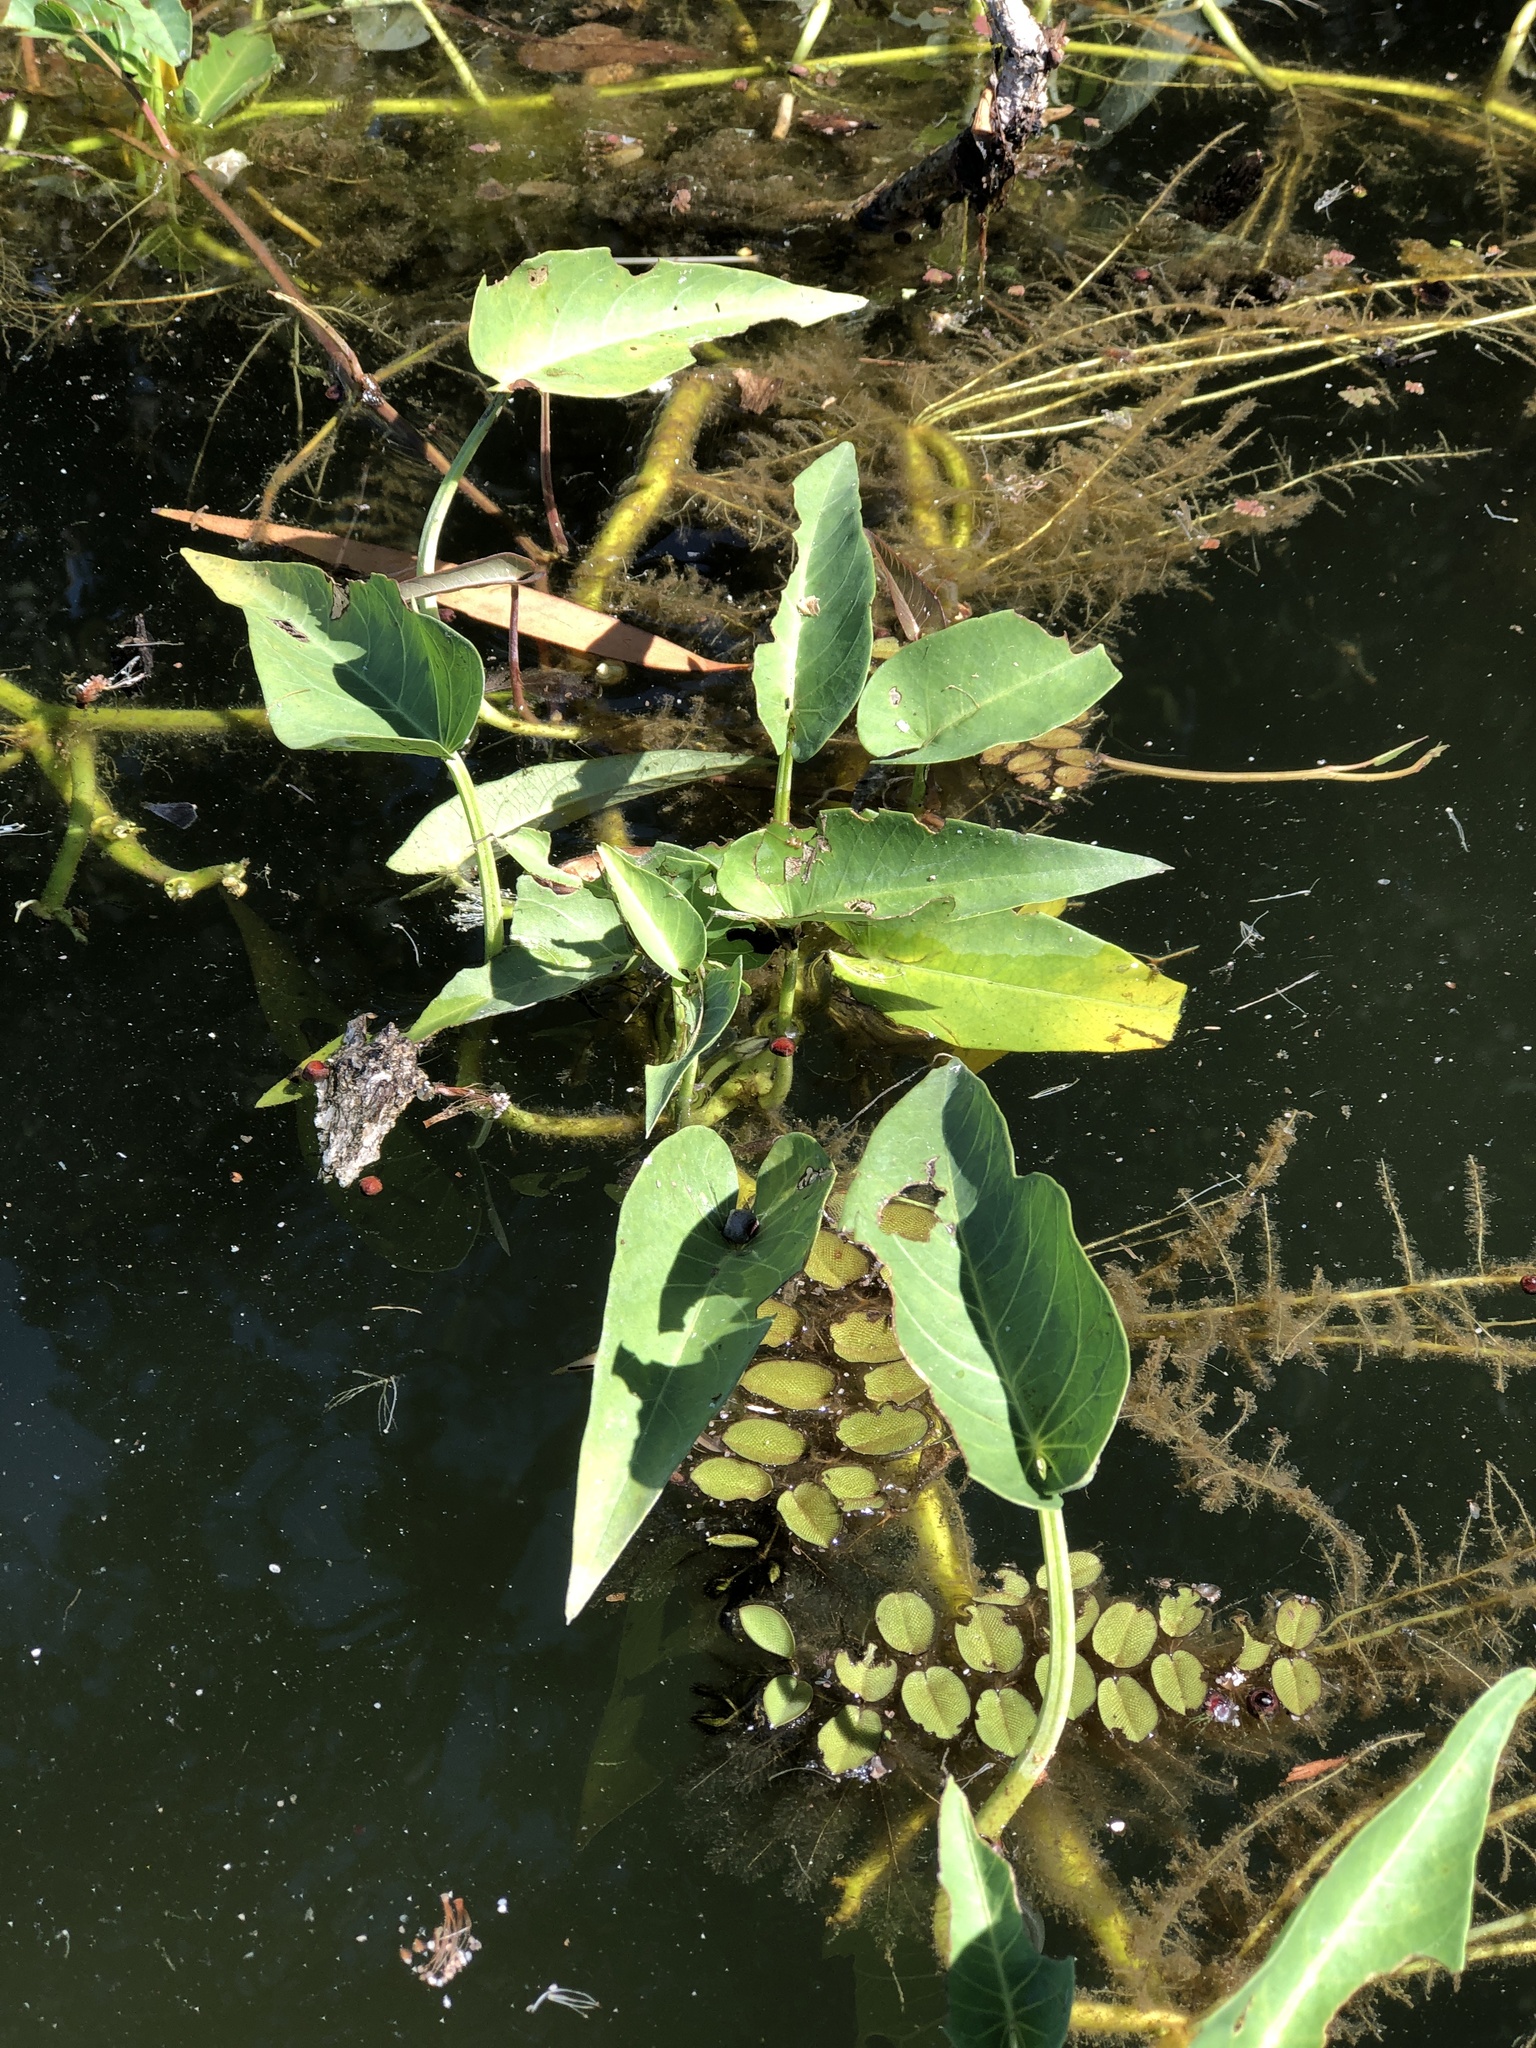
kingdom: Plantae
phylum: Tracheophyta
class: Magnoliopsida
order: Solanales
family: Convolvulaceae
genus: Ipomoea
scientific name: Ipomoea aquatica
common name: Swamp morning-glory
